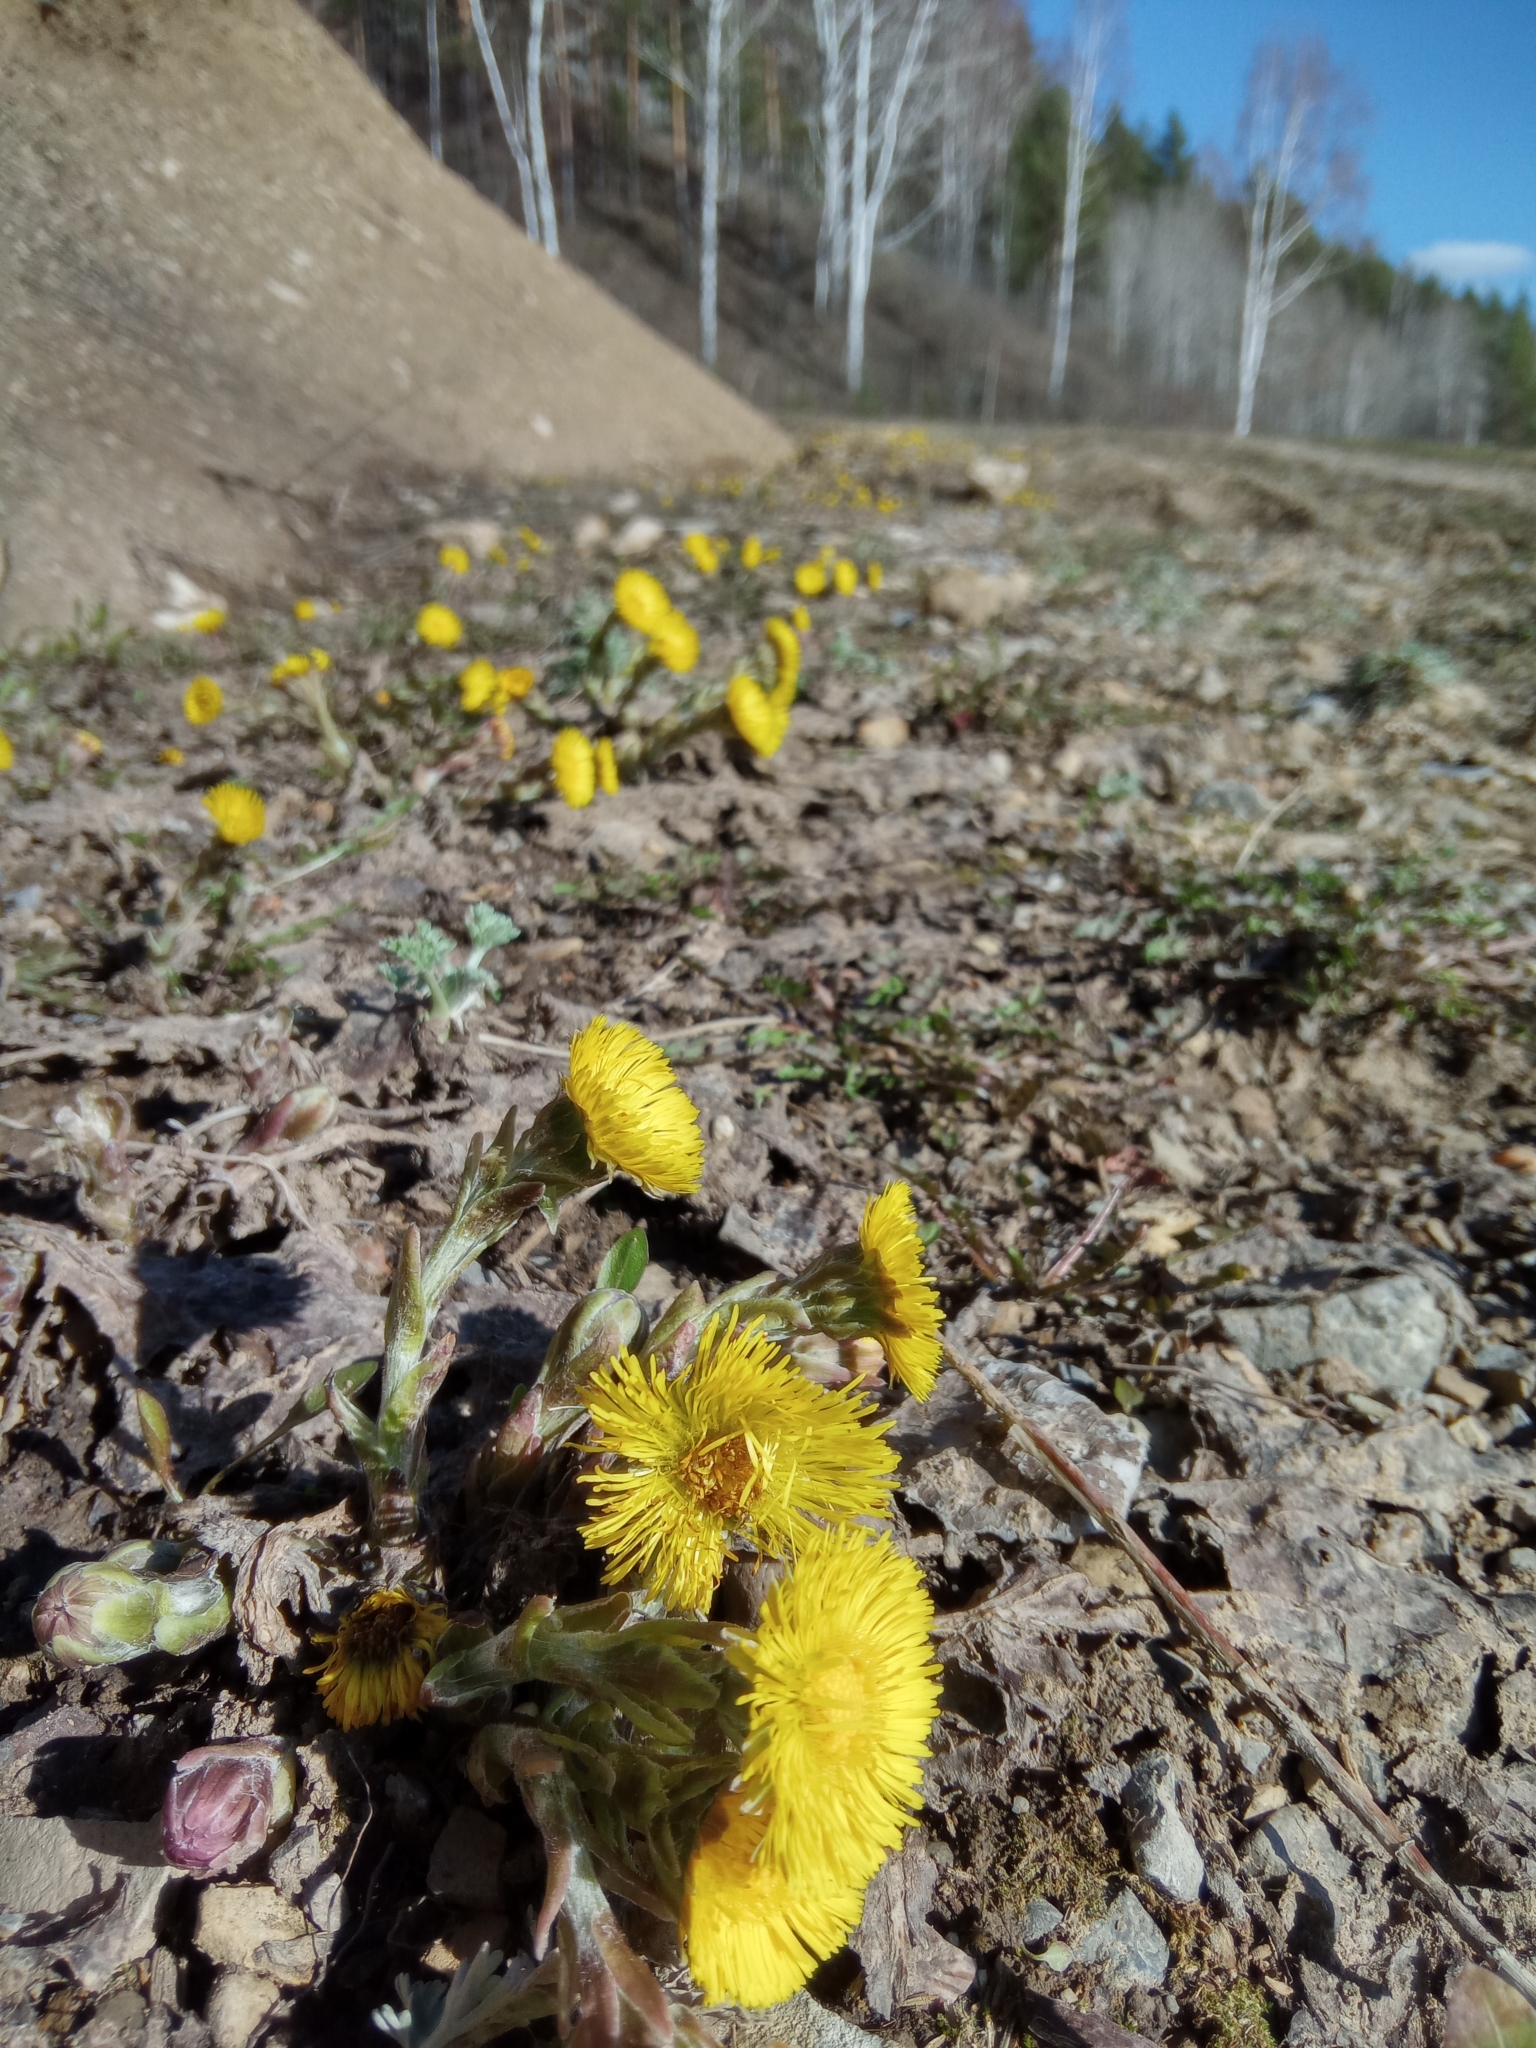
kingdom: Plantae
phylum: Tracheophyta
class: Magnoliopsida
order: Asterales
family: Asteraceae
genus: Tussilago
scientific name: Tussilago farfara
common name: Coltsfoot
